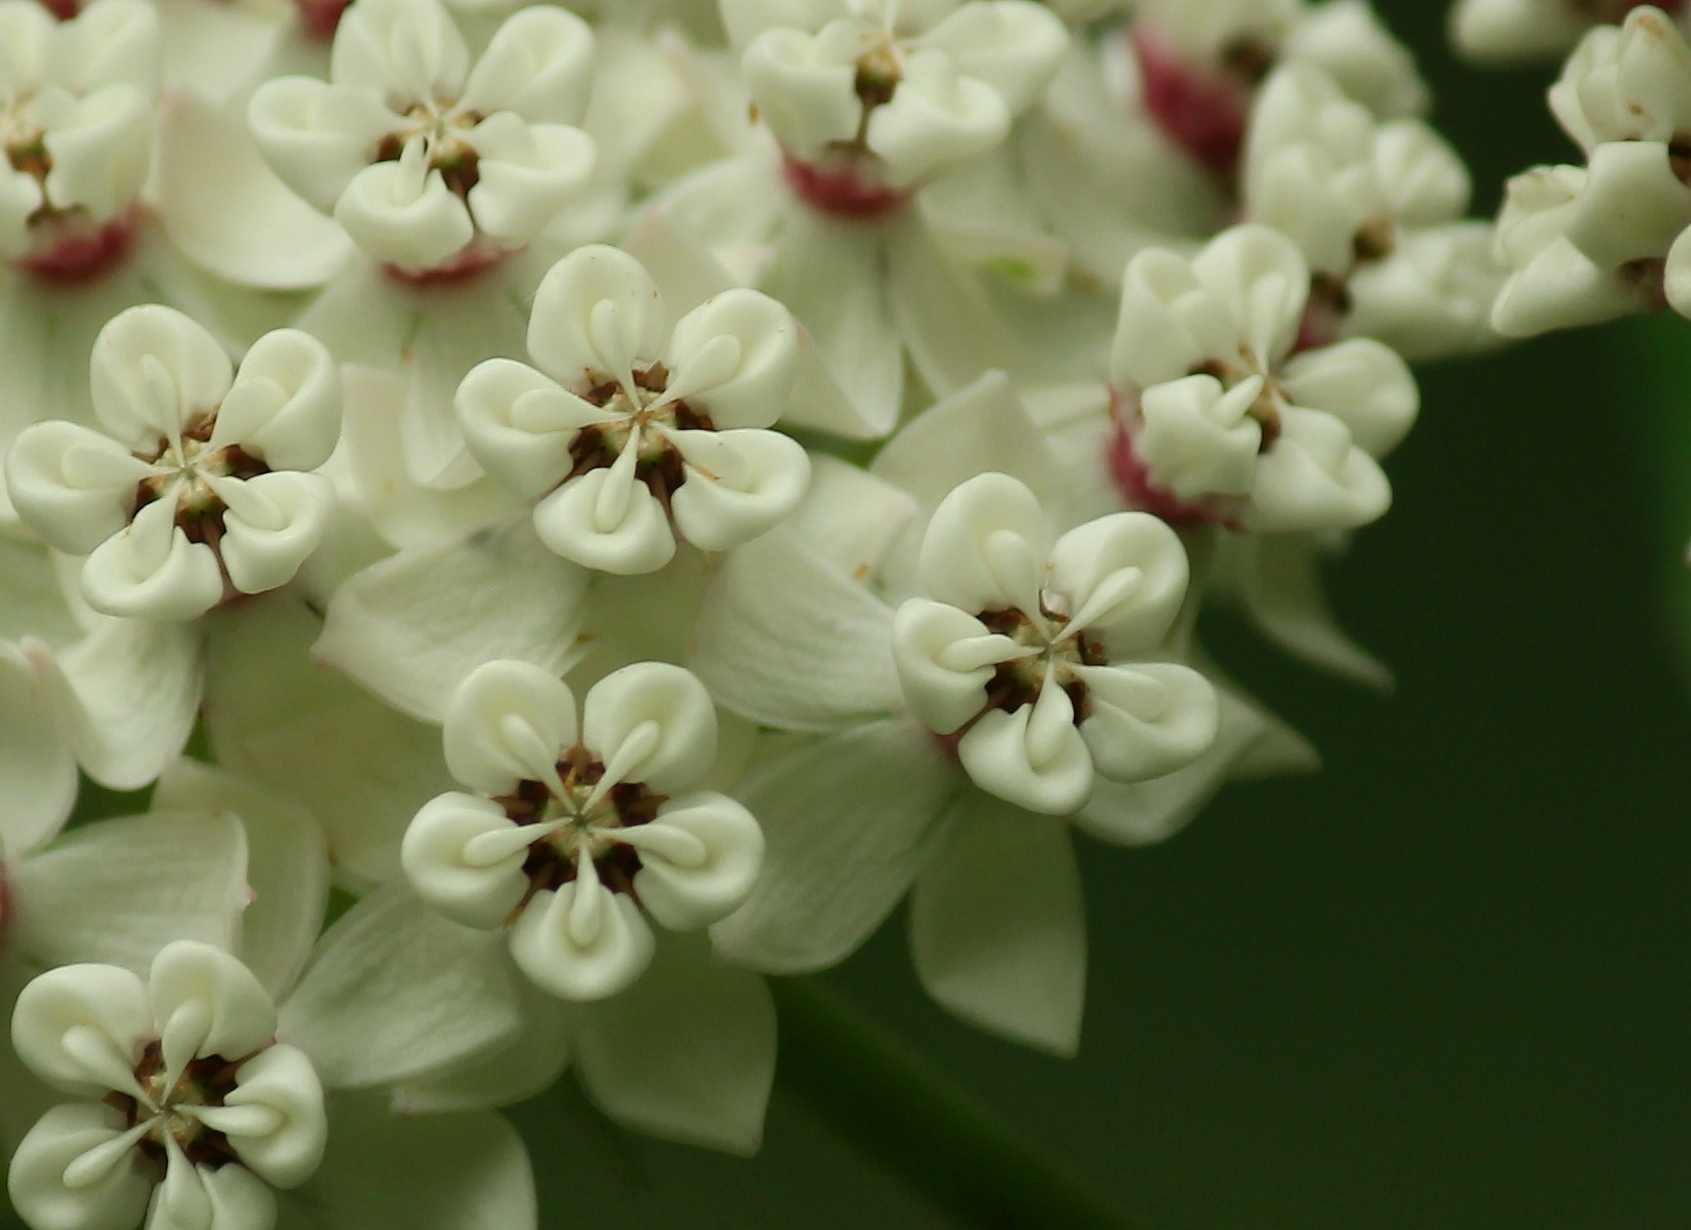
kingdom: Plantae
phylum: Tracheophyta
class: Magnoliopsida
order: Gentianales
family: Apocynaceae
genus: Asclepias
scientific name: Asclepias variegata
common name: Variegated milkweed
